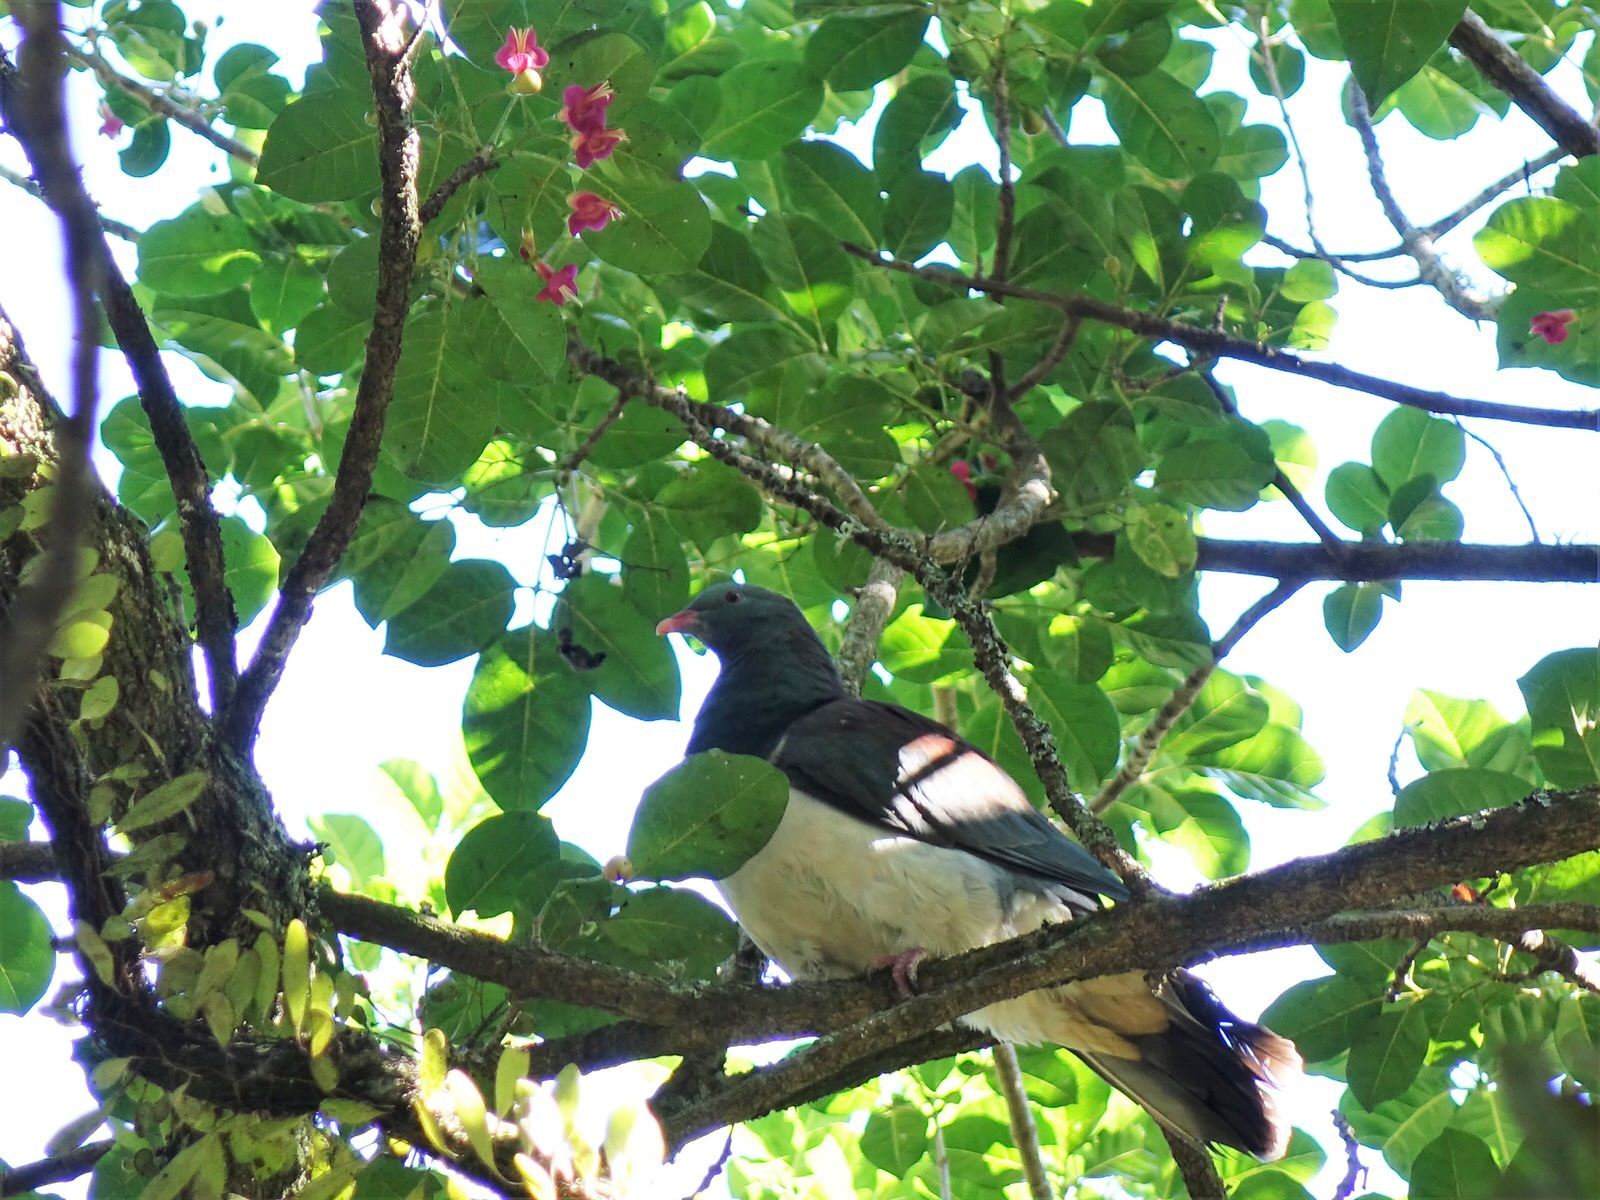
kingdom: Animalia
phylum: Chordata
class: Aves
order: Columbiformes
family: Columbidae
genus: Hemiphaga
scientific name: Hemiphaga novaeseelandiae
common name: New zealand pigeon
